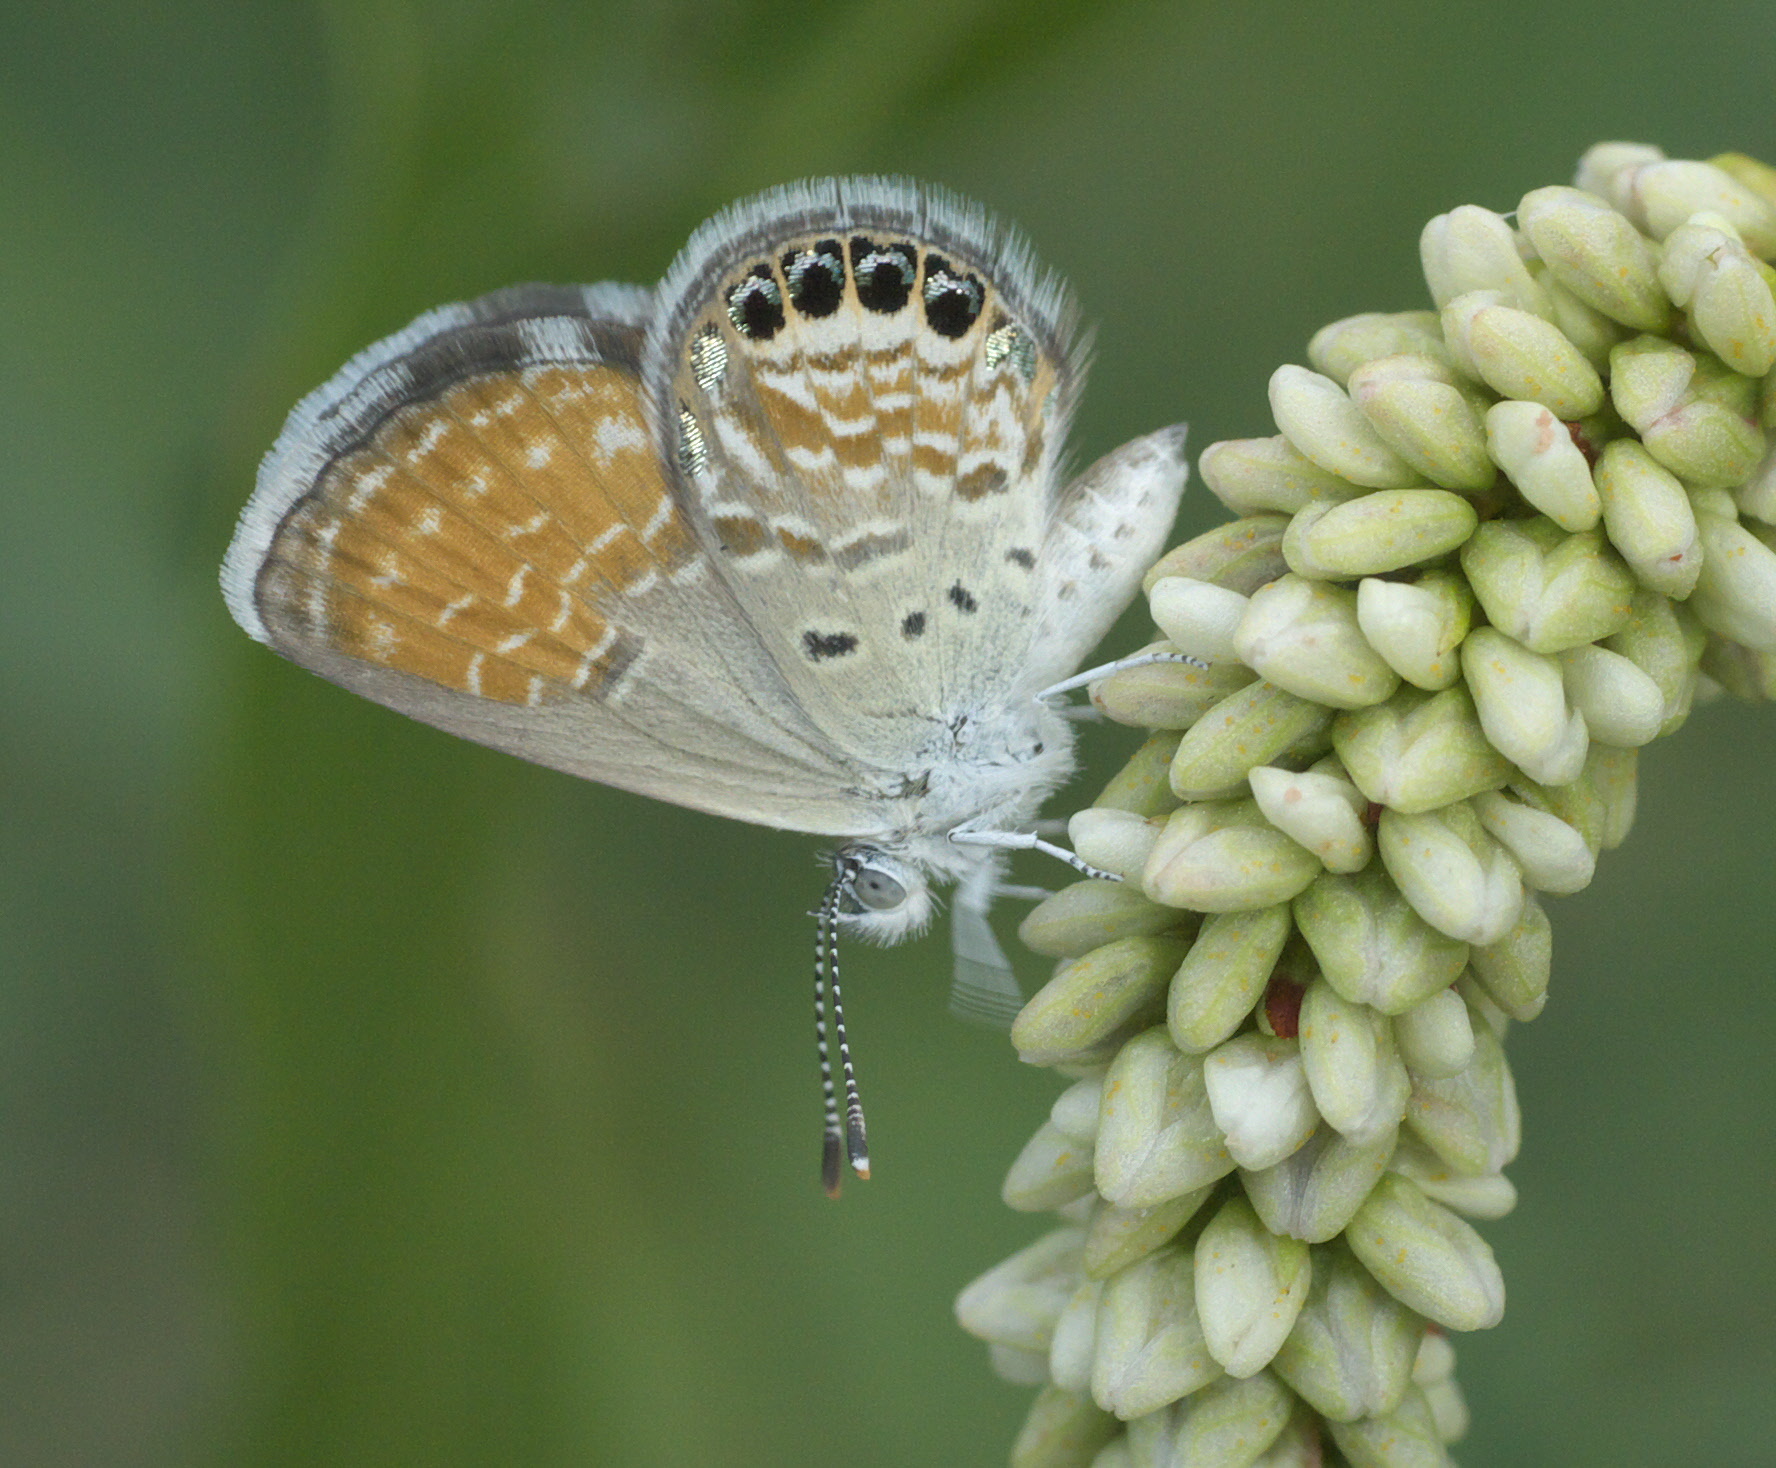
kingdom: Animalia
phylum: Arthropoda
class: Insecta
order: Lepidoptera
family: Lycaenidae
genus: Brephidium
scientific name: Brephidium exilis
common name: Pygmy blue
